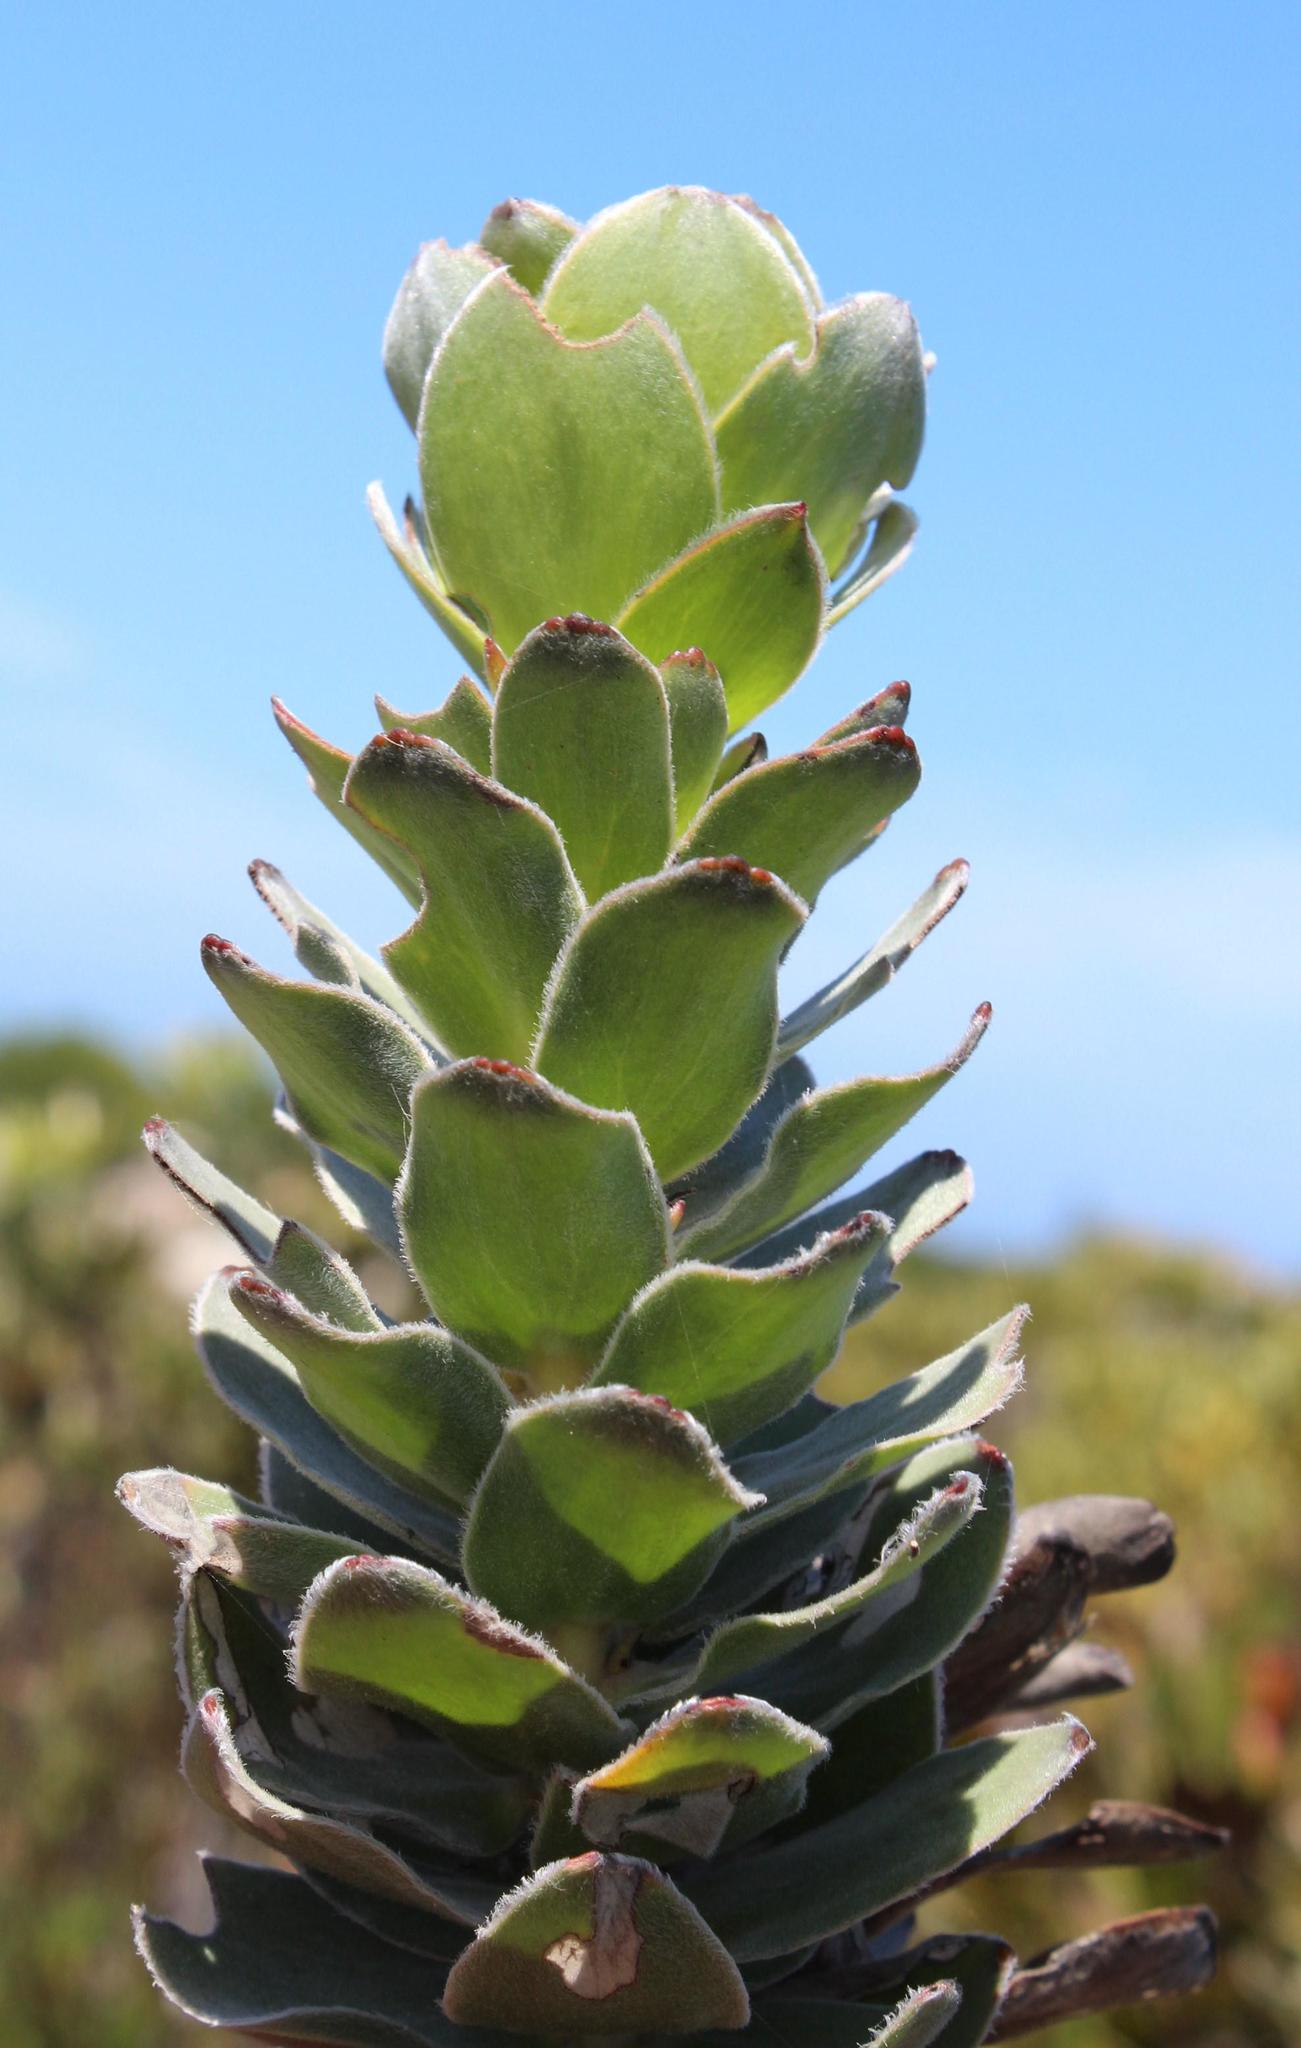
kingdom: Plantae
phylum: Tracheophyta
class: Magnoliopsida
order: Proteales
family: Proteaceae
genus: Mimetes
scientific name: Mimetes saxatilis
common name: Limestone pagoda
